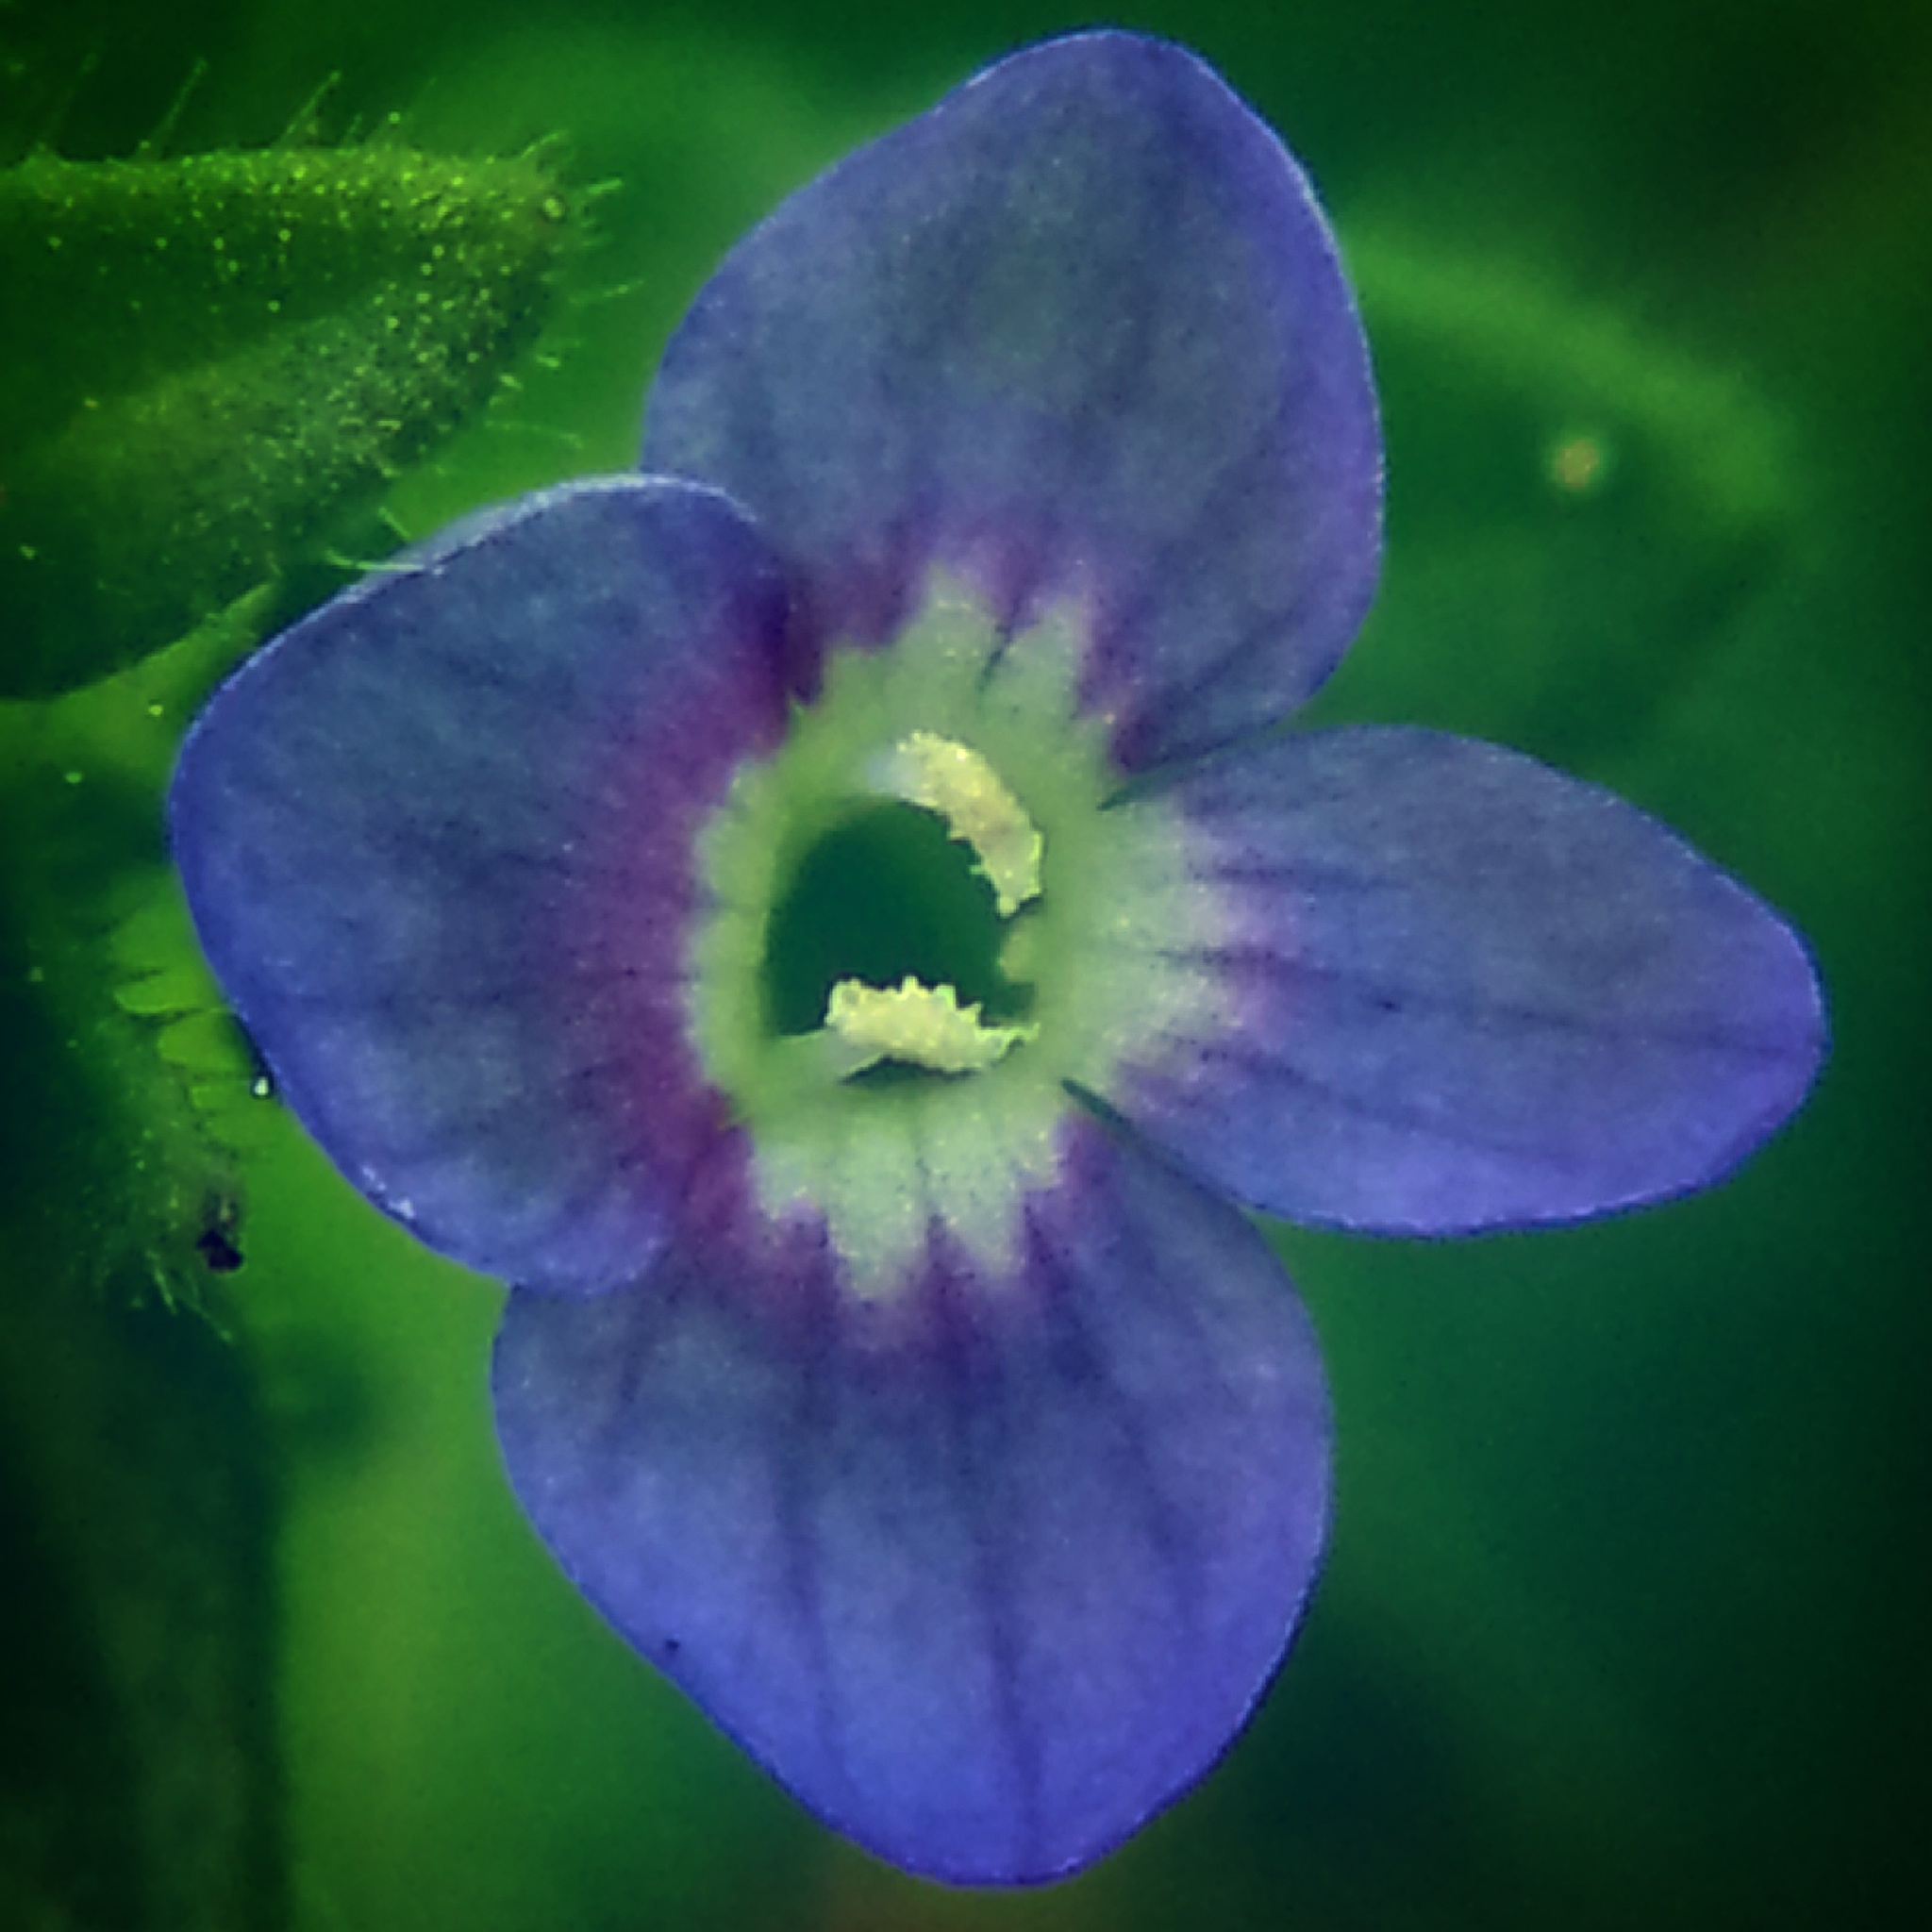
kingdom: Plantae
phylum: Tracheophyta
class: Magnoliopsida
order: Lamiales
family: Plantaginaceae
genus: Veronica
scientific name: Veronica arvensis
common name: Corn speedwell
